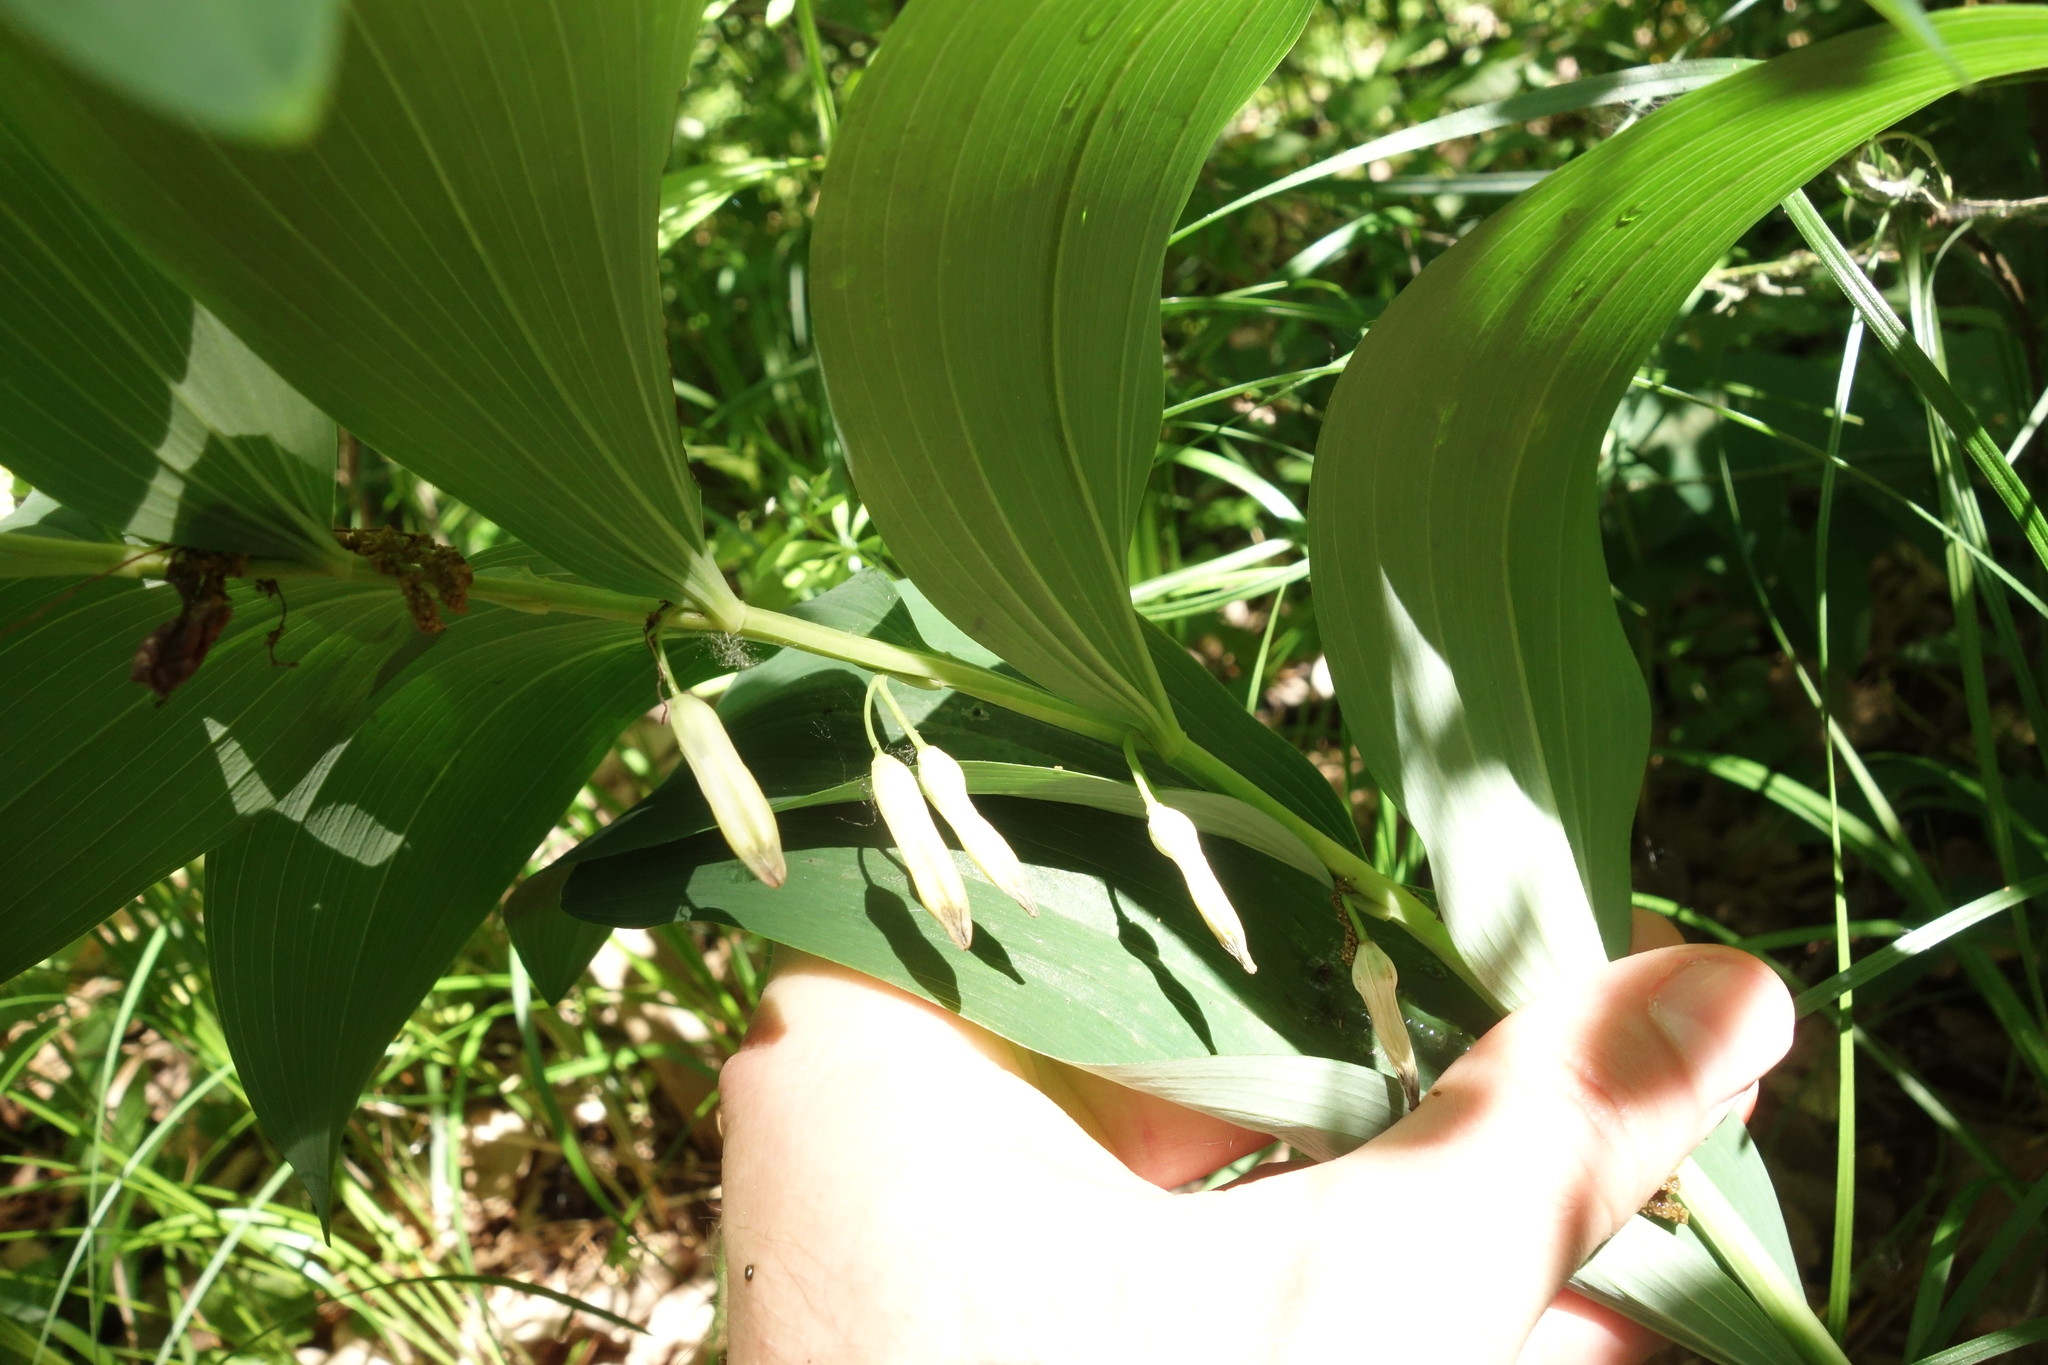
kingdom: Plantae
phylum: Tracheophyta
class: Liliopsida
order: Asparagales
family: Asparagaceae
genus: Polygonatum
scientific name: Polygonatum odoratum
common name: Angular solomon's-seal
